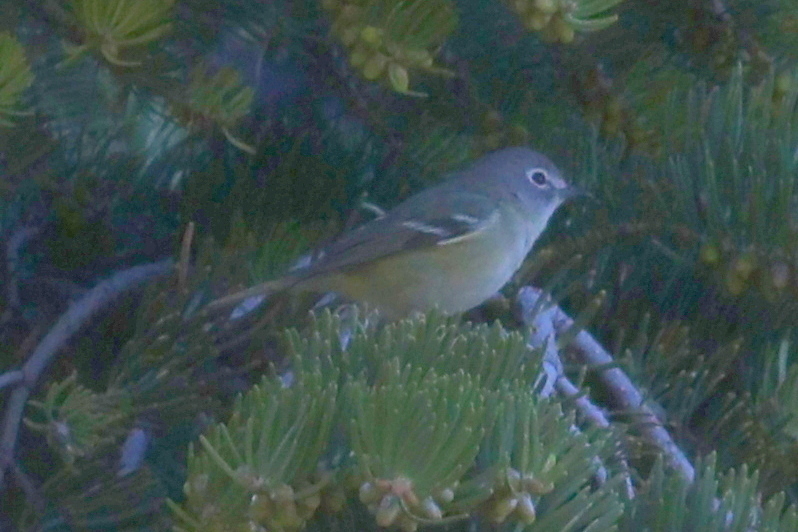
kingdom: Animalia
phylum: Chordata
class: Aves
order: Passeriformes
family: Vireonidae
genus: Vireo
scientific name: Vireo cassinii
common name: Cassin's vireo
